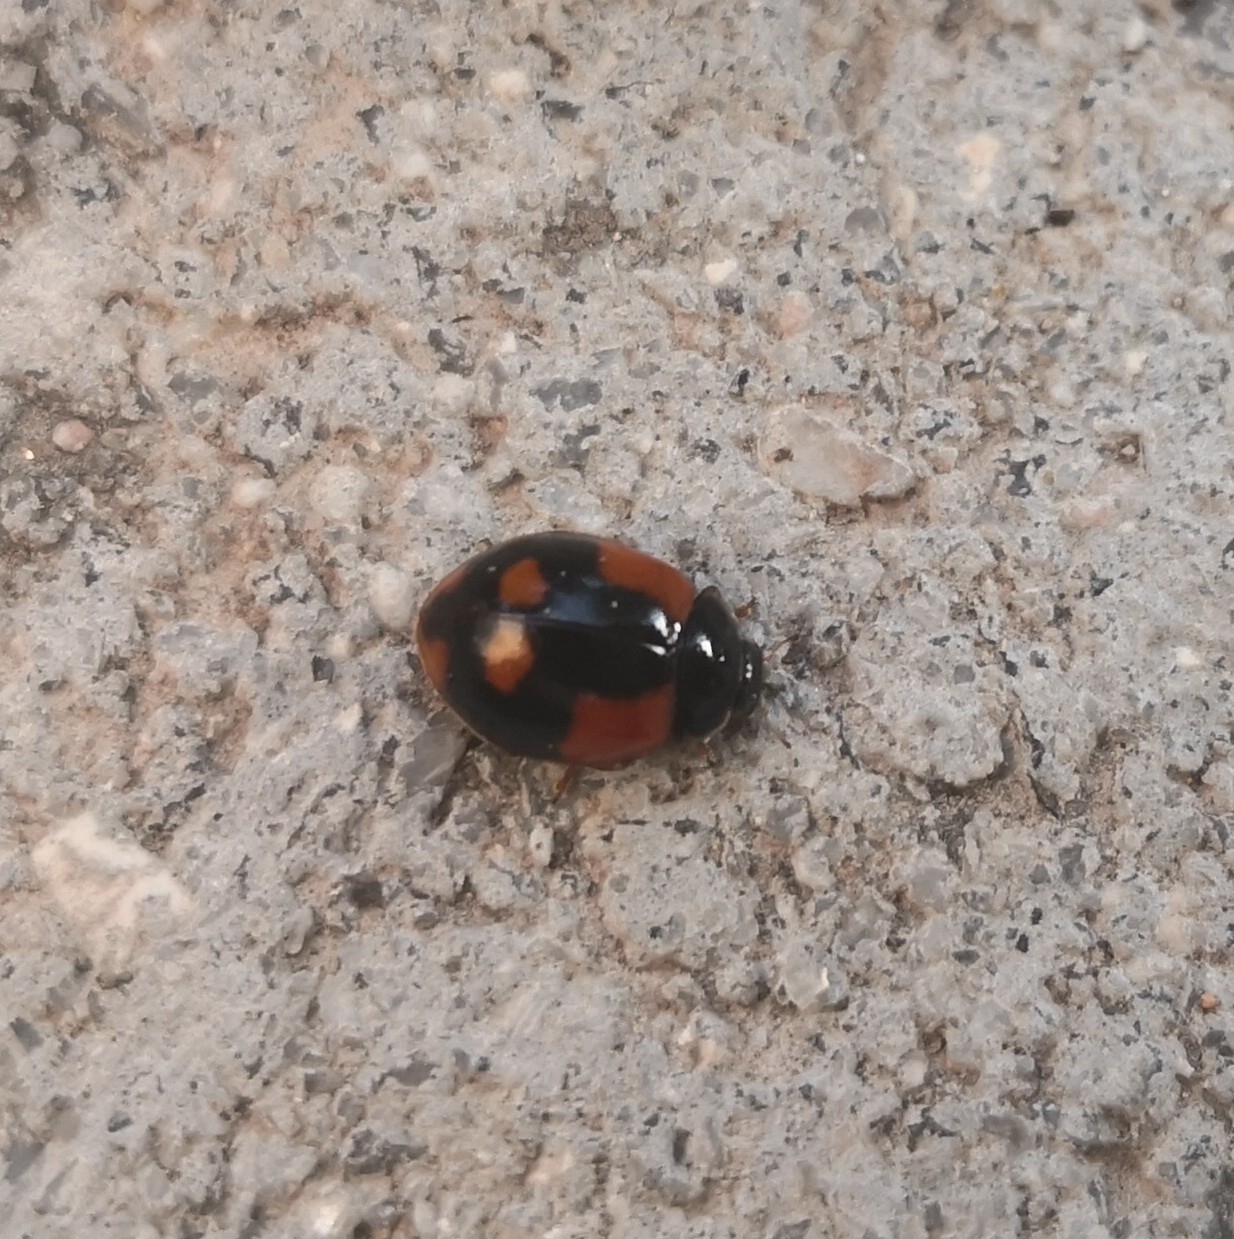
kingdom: Animalia
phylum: Arthropoda
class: Insecta
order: Coleoptera
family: Coccinellidae
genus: Adalia
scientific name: Adalia bipunctata
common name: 2-spot ladybird
